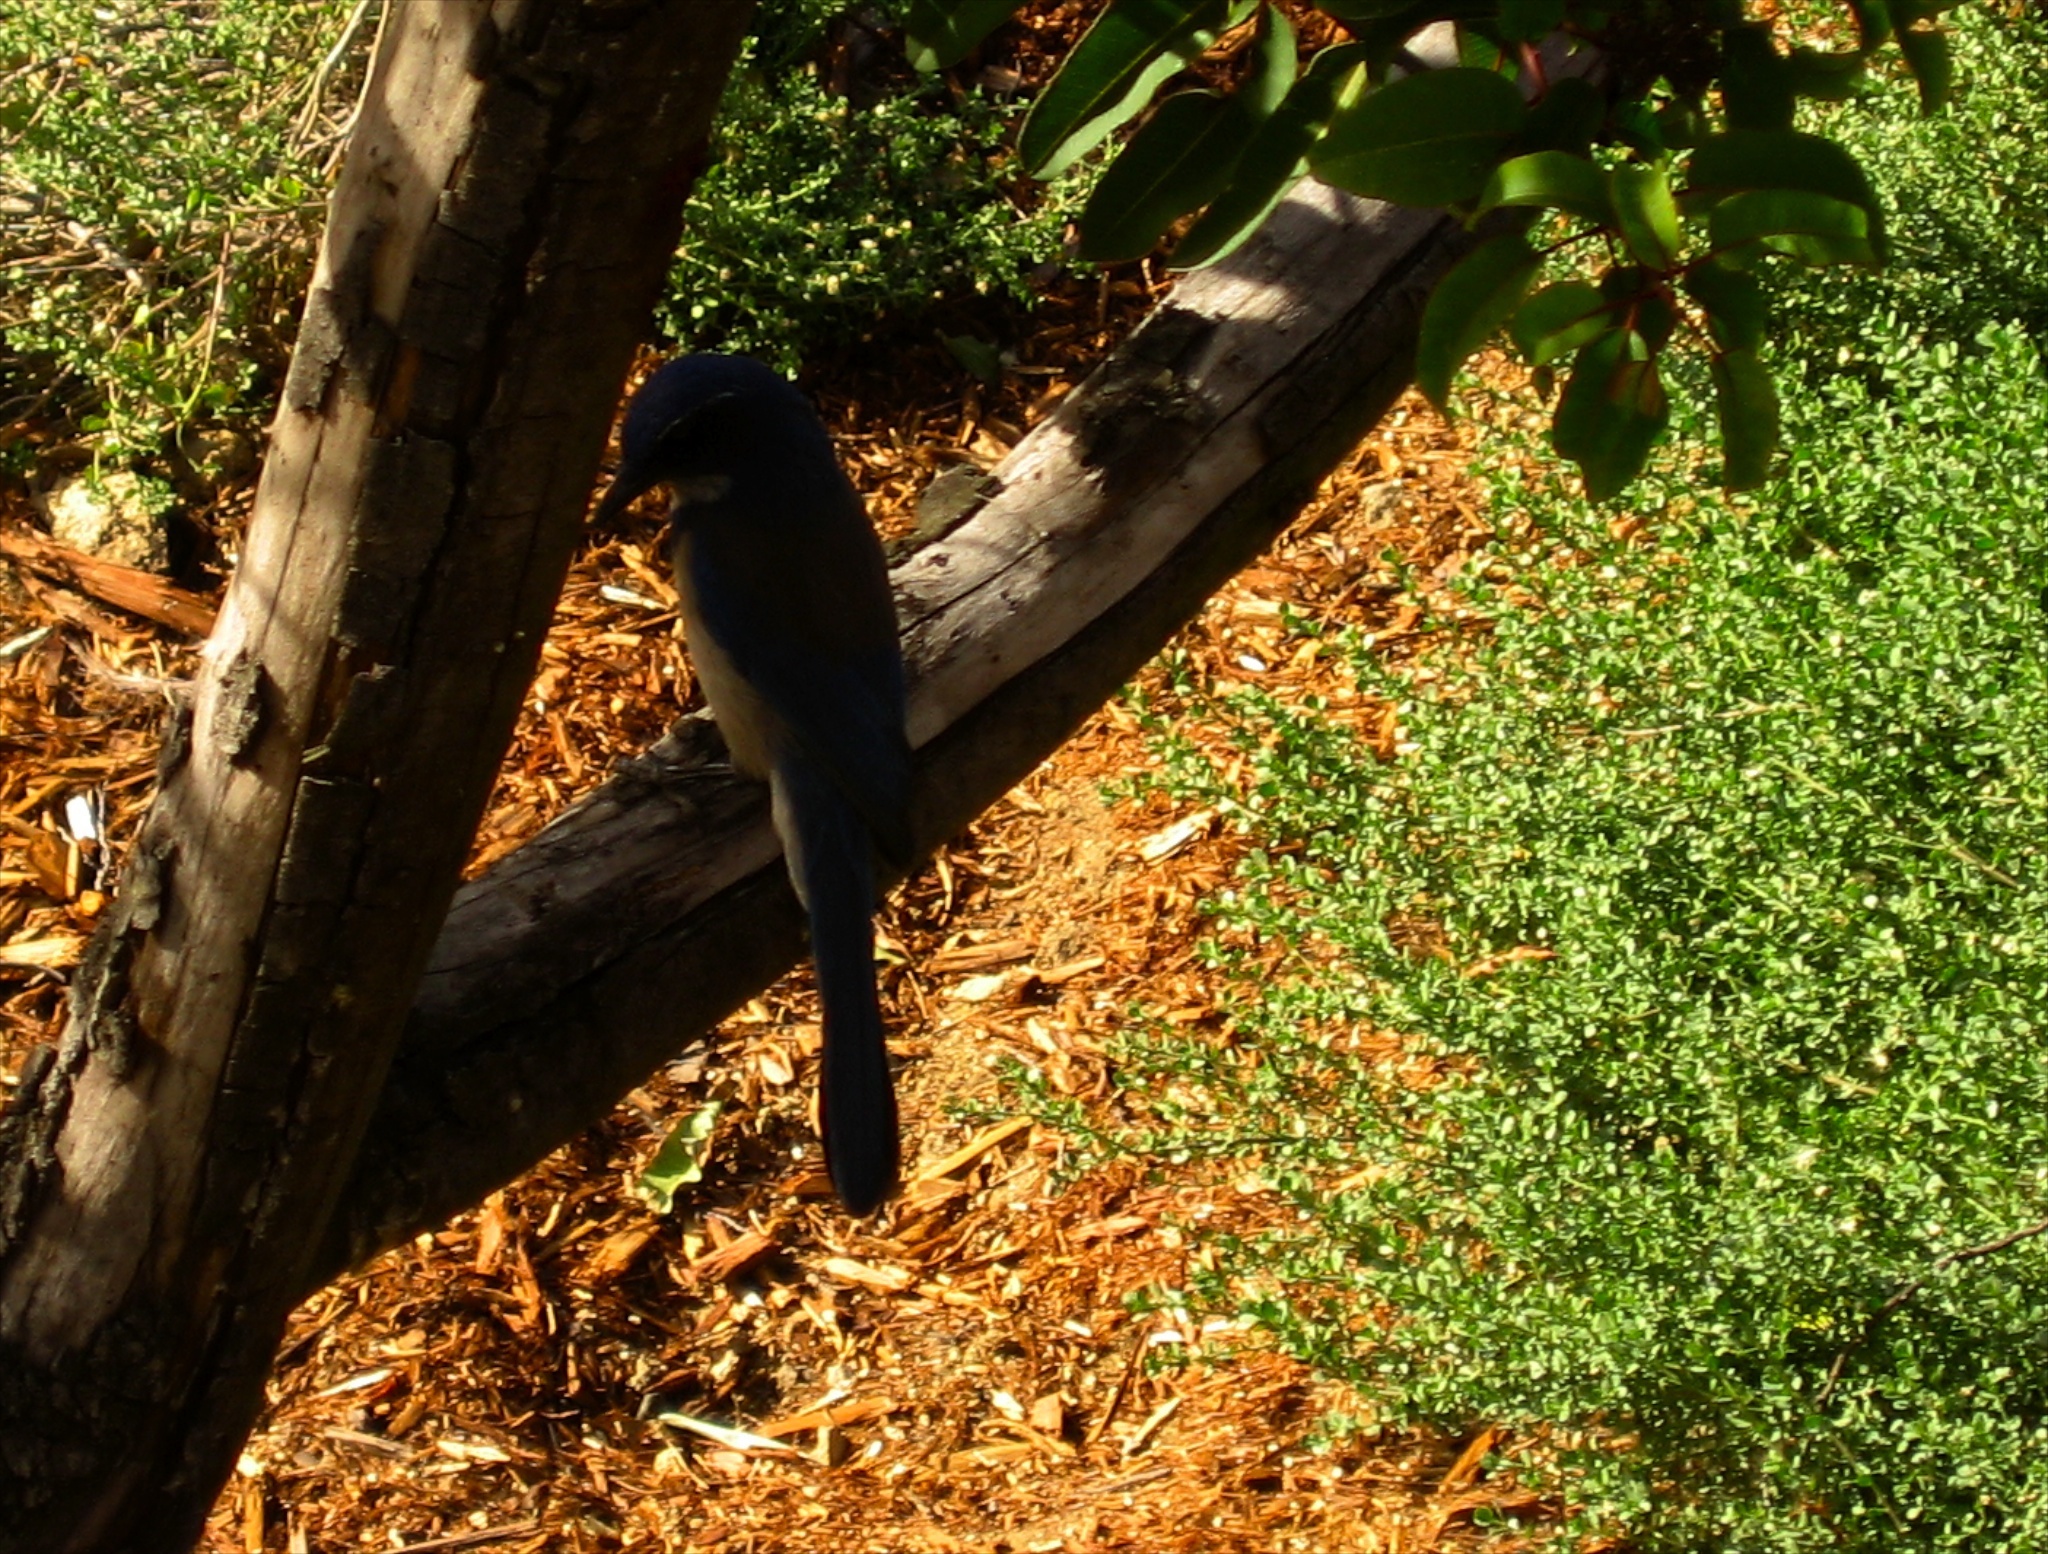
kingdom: Animalia
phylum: Chordata
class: Aves
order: Passeriformes
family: Corvidae
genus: Aphelocoma
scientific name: Aphelocoma californica
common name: California scrub-jay
